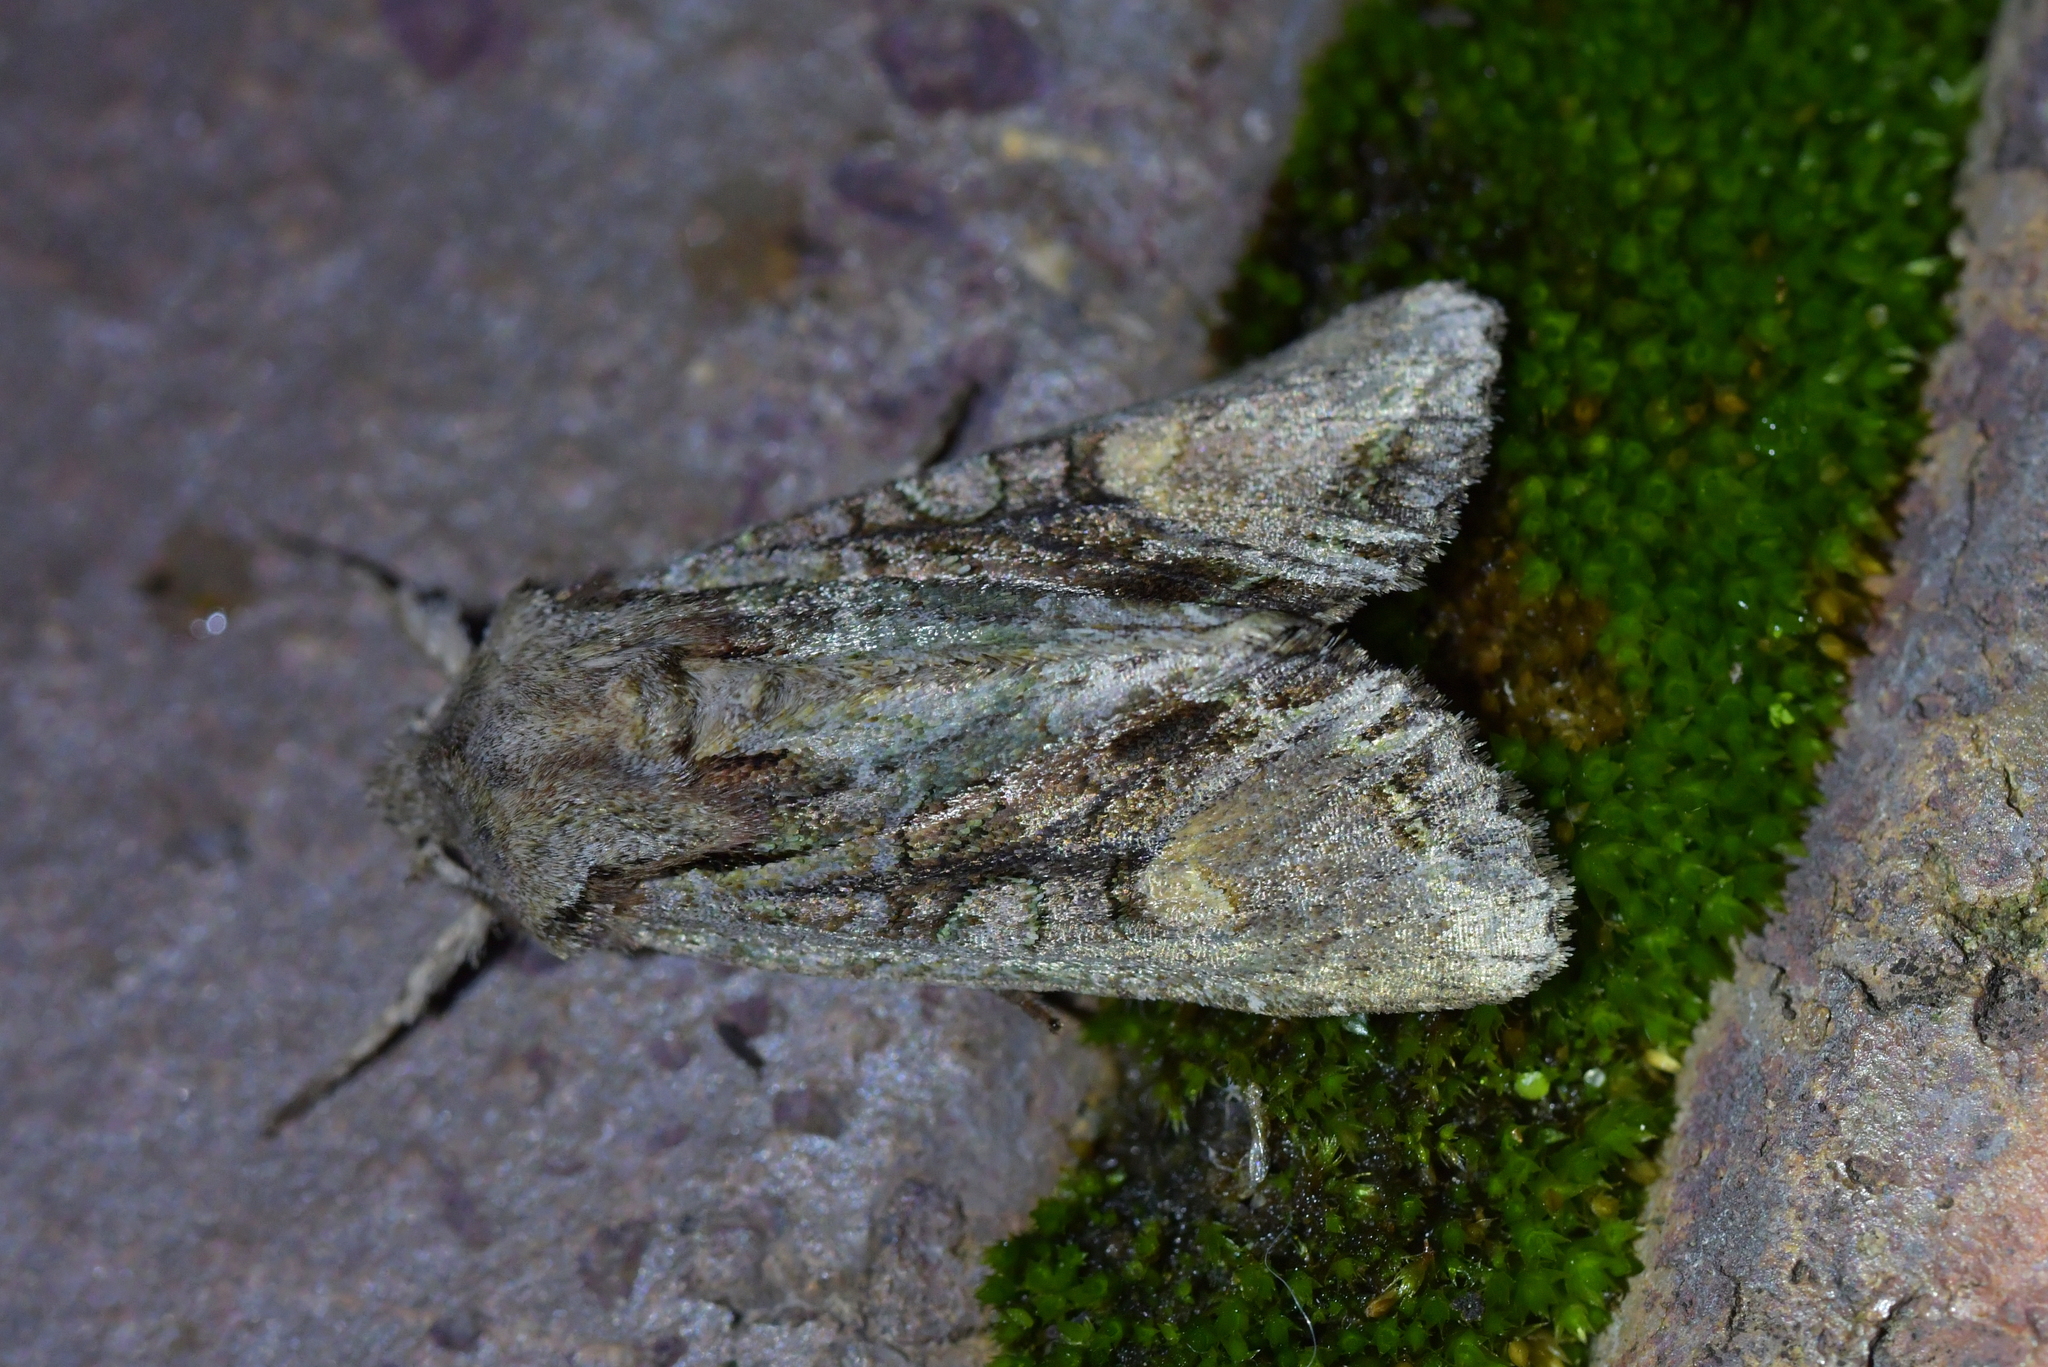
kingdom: Animalia
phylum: Arthropoda
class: Insecta
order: Lepidoptera
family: Noctuidae
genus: Ichneutica
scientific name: Ichneutica
